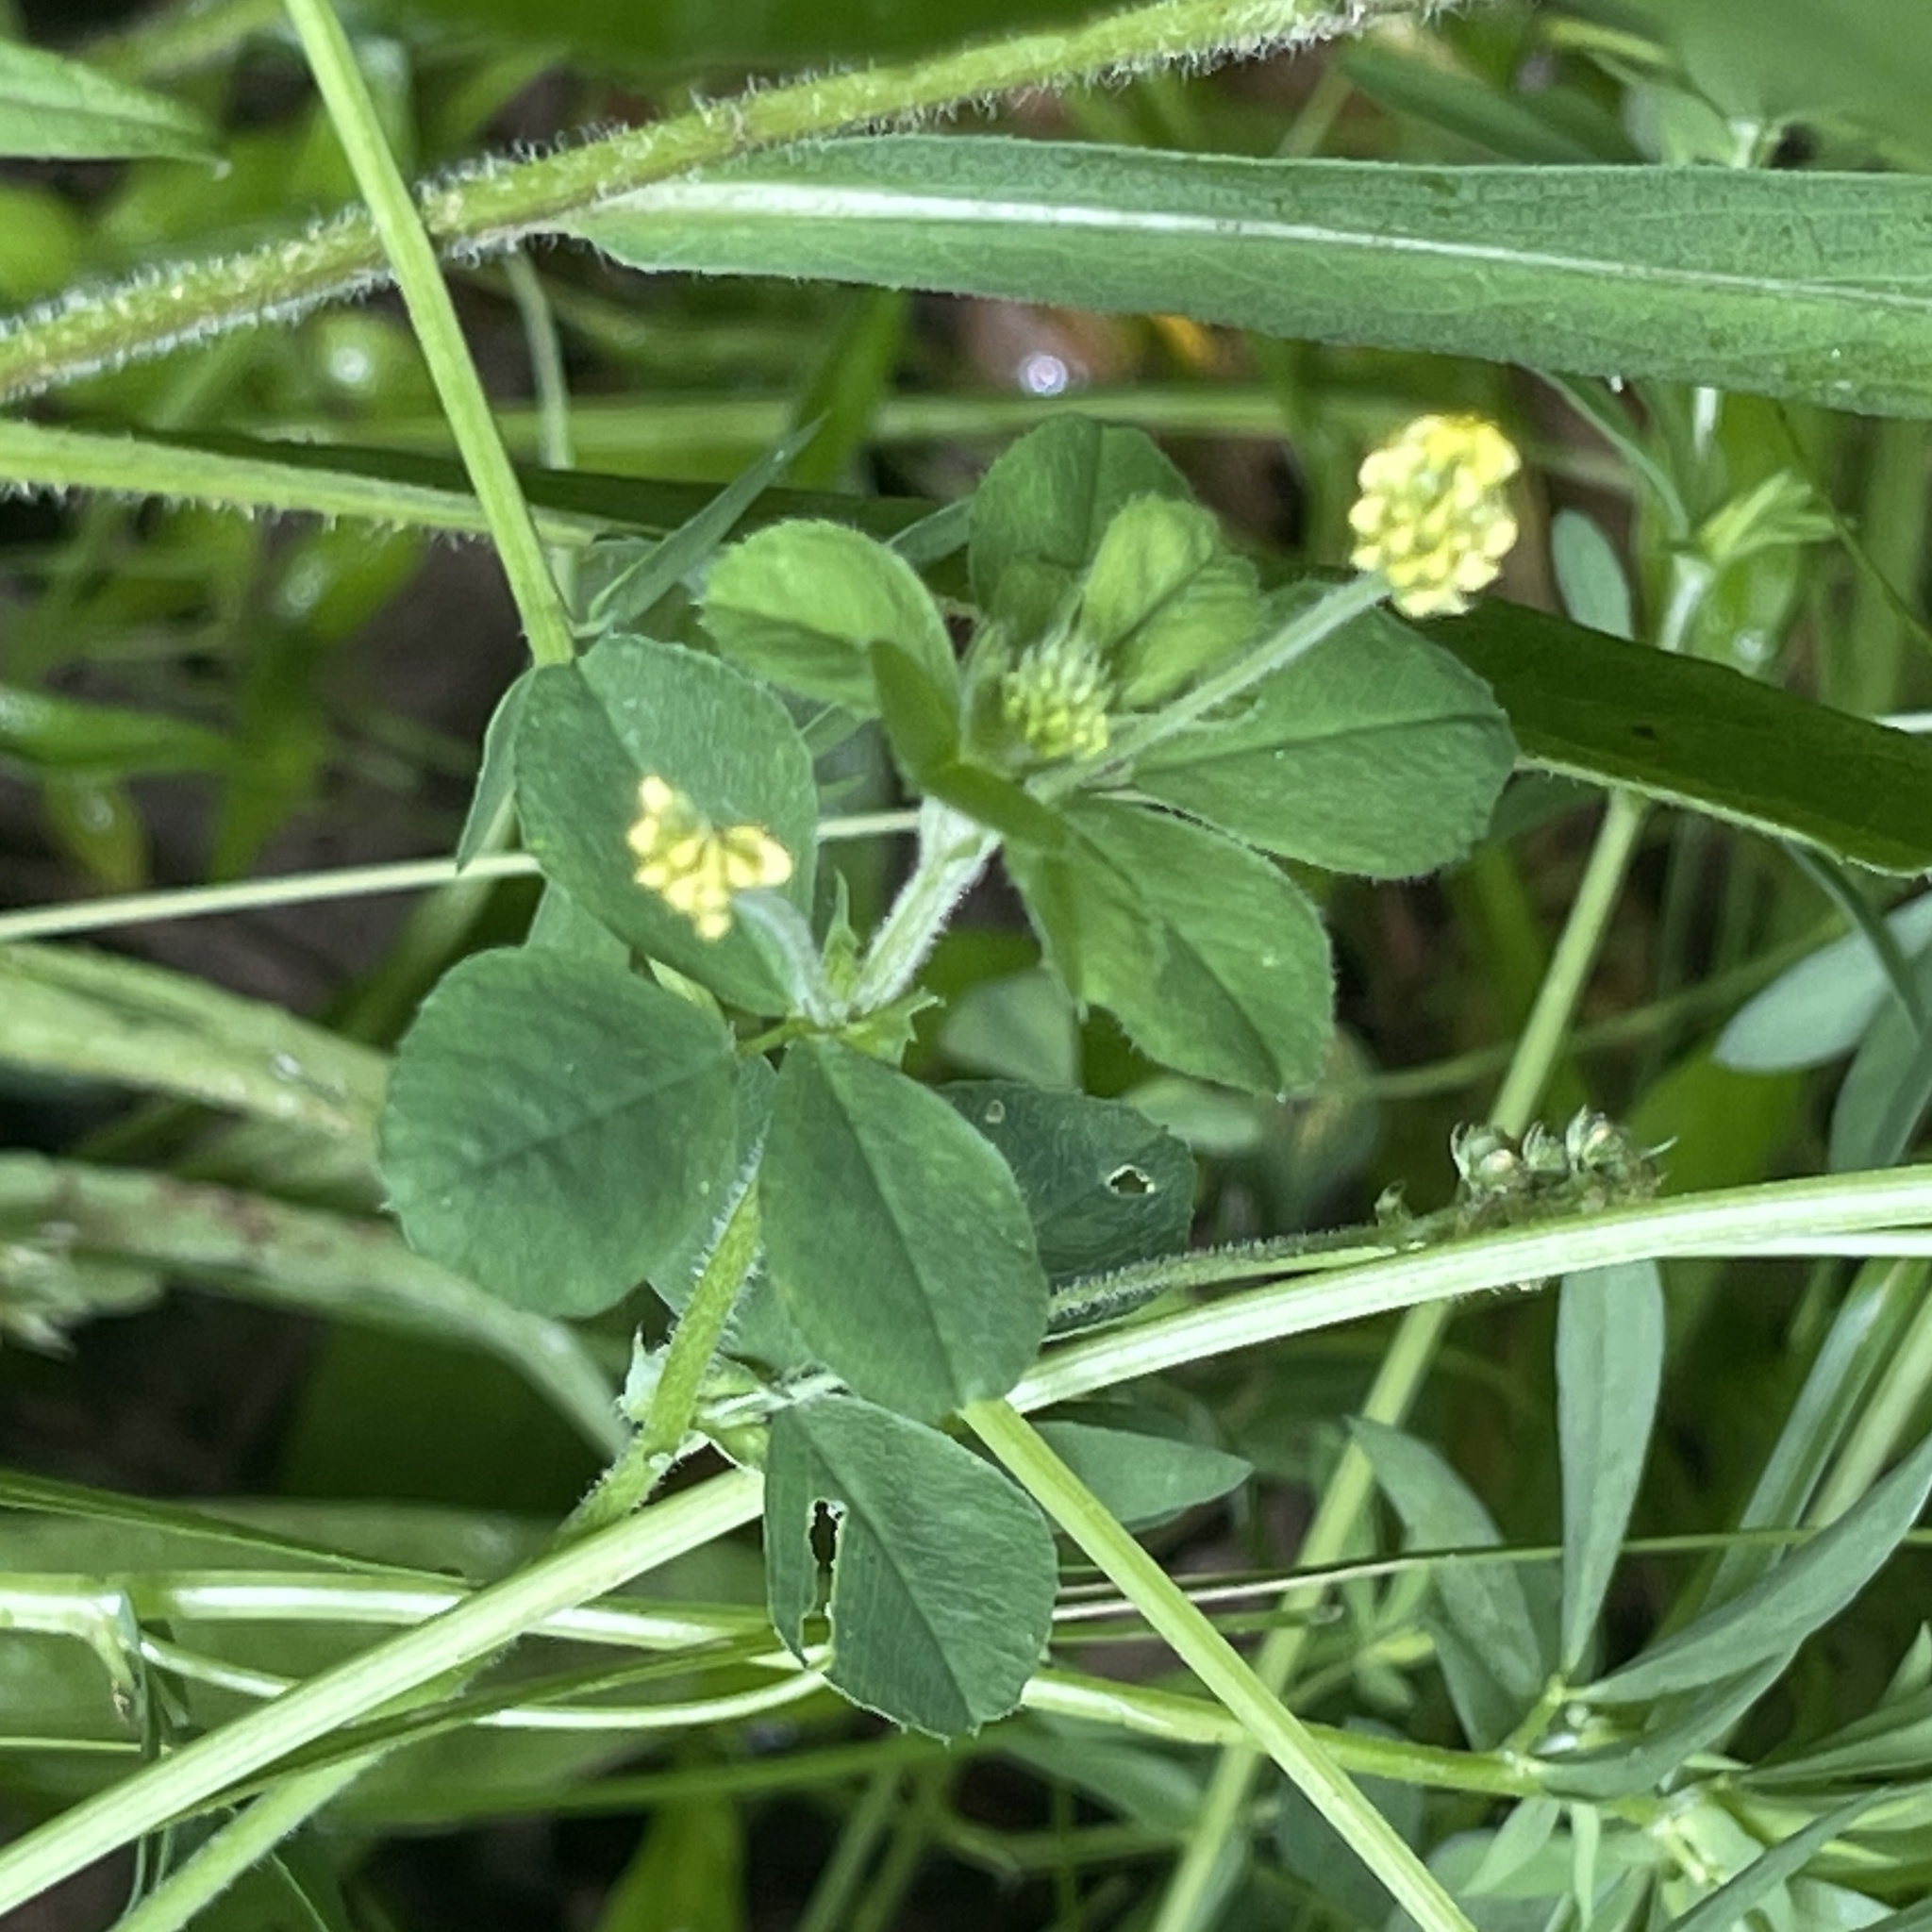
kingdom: Plantae
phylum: Tracheophyta
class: Magnoliopsida
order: Fabales
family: Fabaceae
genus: Medicago
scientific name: Medicago lupulina
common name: Black medick
